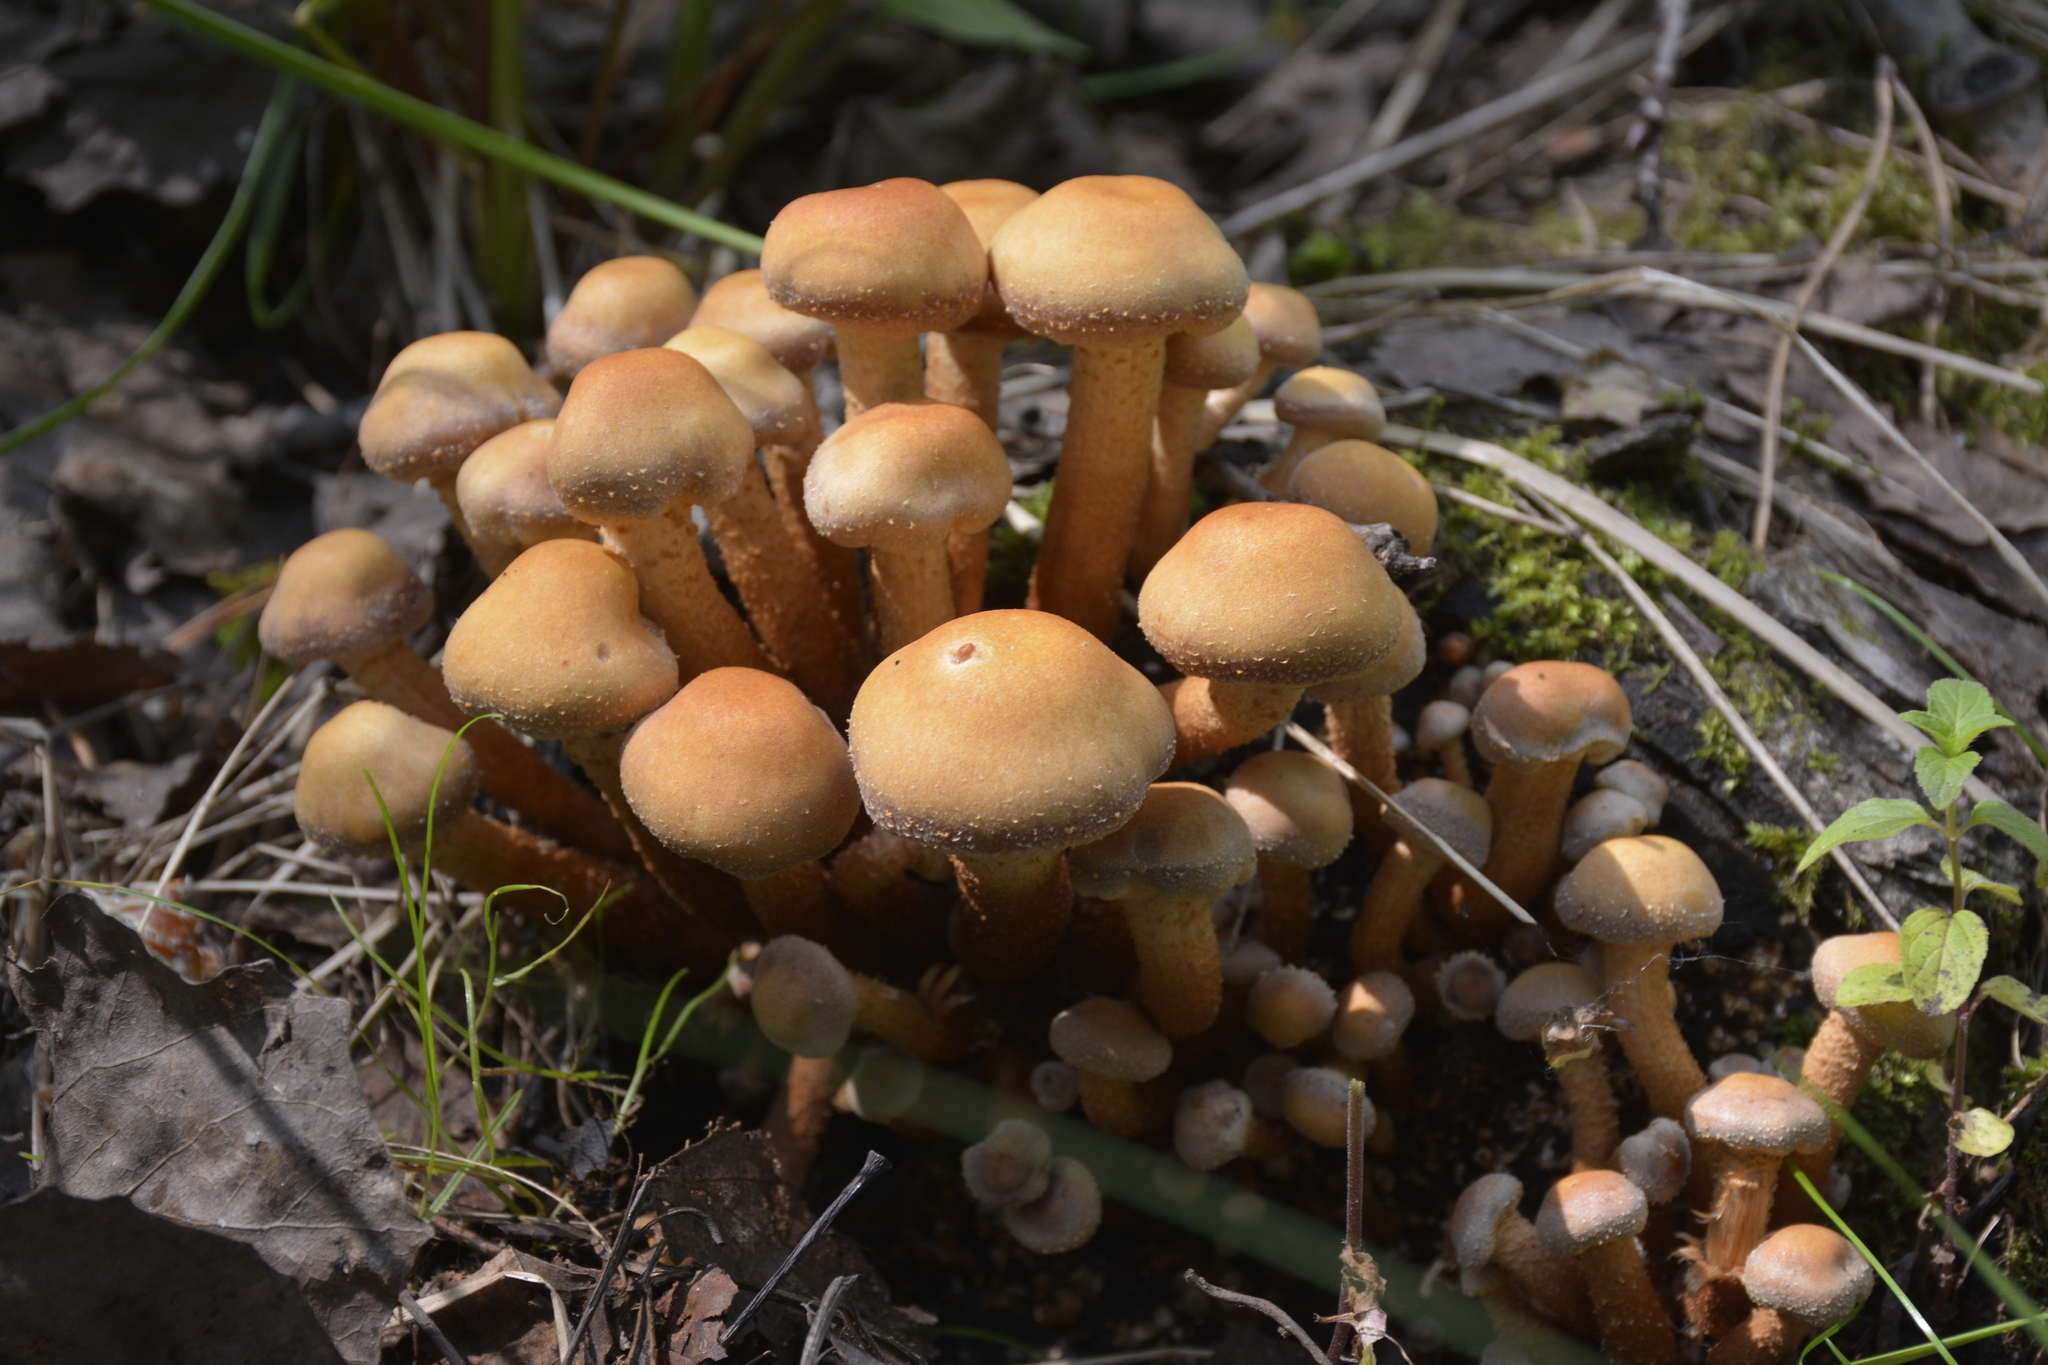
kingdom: Fungi
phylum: Basidiomycota
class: Agaricomycetes
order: Agaricales
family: Strophariaceae
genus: Kuehneromyces
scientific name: Kuehneromyces mutabilis
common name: Sheathed woodtuft
